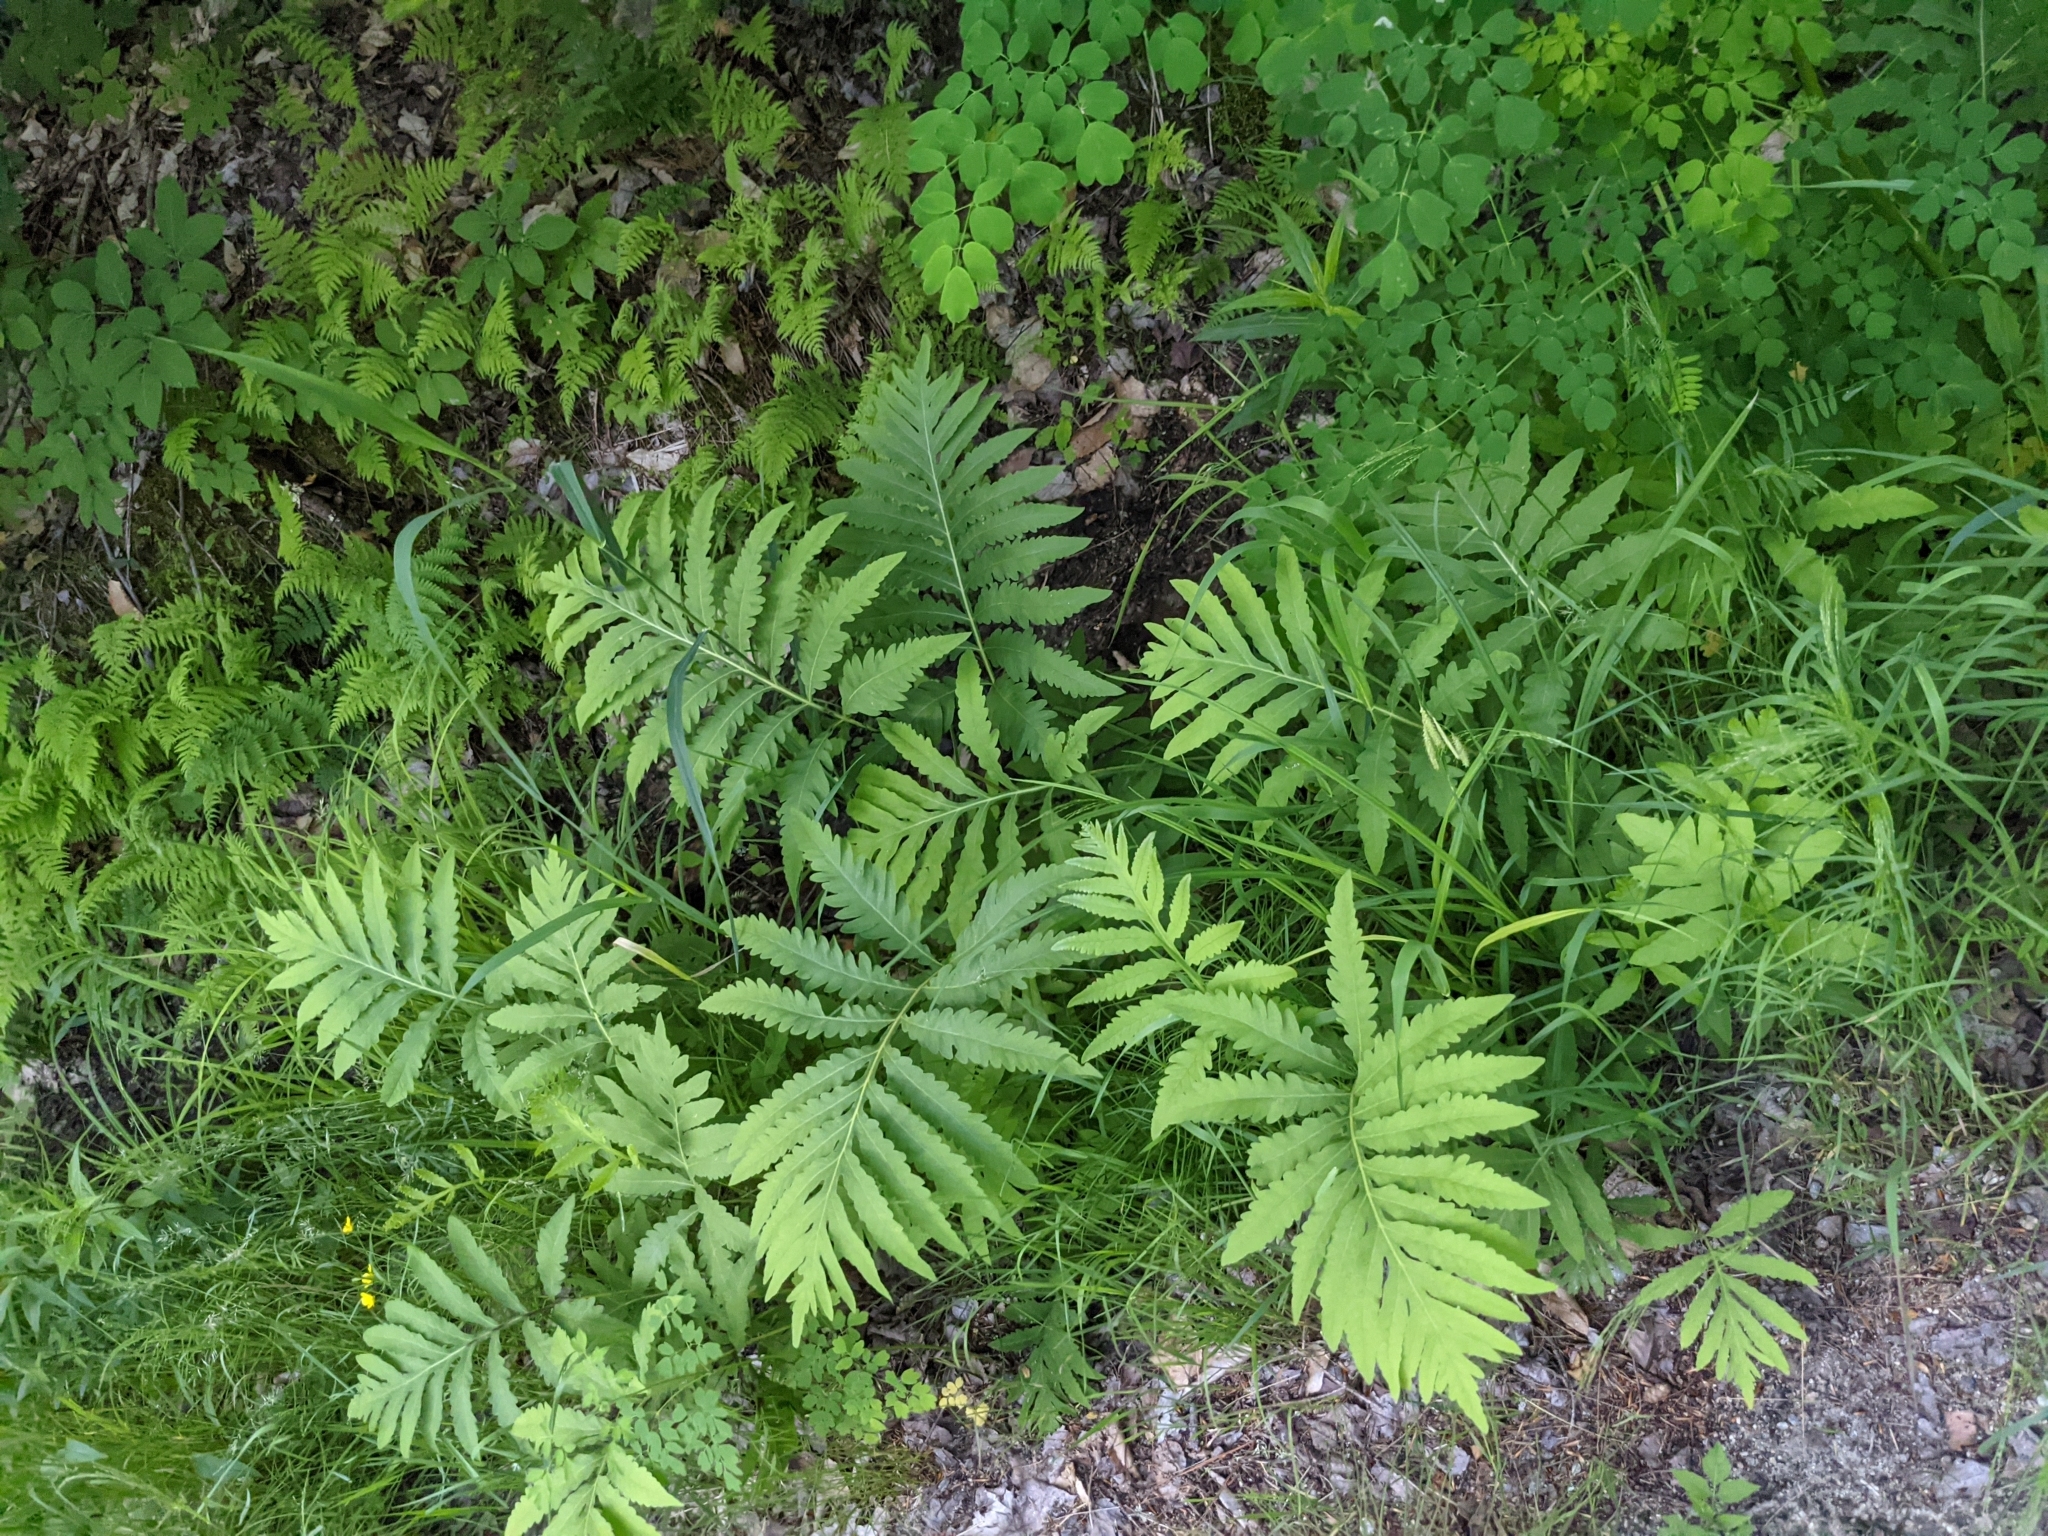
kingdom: Plantae
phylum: Tracheophyta
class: Polypodiopsida
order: Polypodiales
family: Onocleaceae
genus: Onoclea
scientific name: Onoclea sensibilis
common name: Sensitive fern
